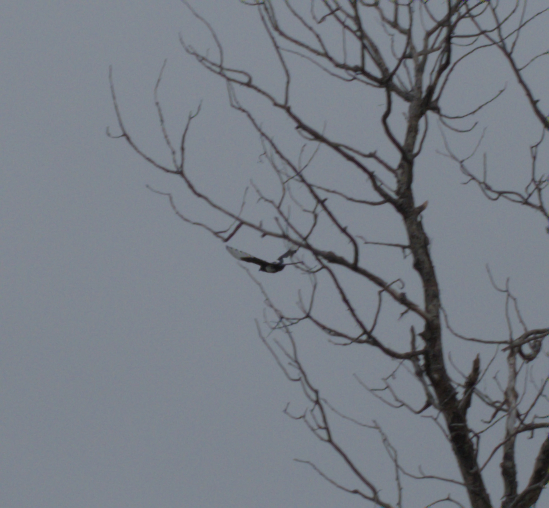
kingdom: Animalia
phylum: Chordata
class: Aves
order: Passeriformes
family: Corvidae
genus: Pica
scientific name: Pica hudsonia
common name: Black-billed magpie
